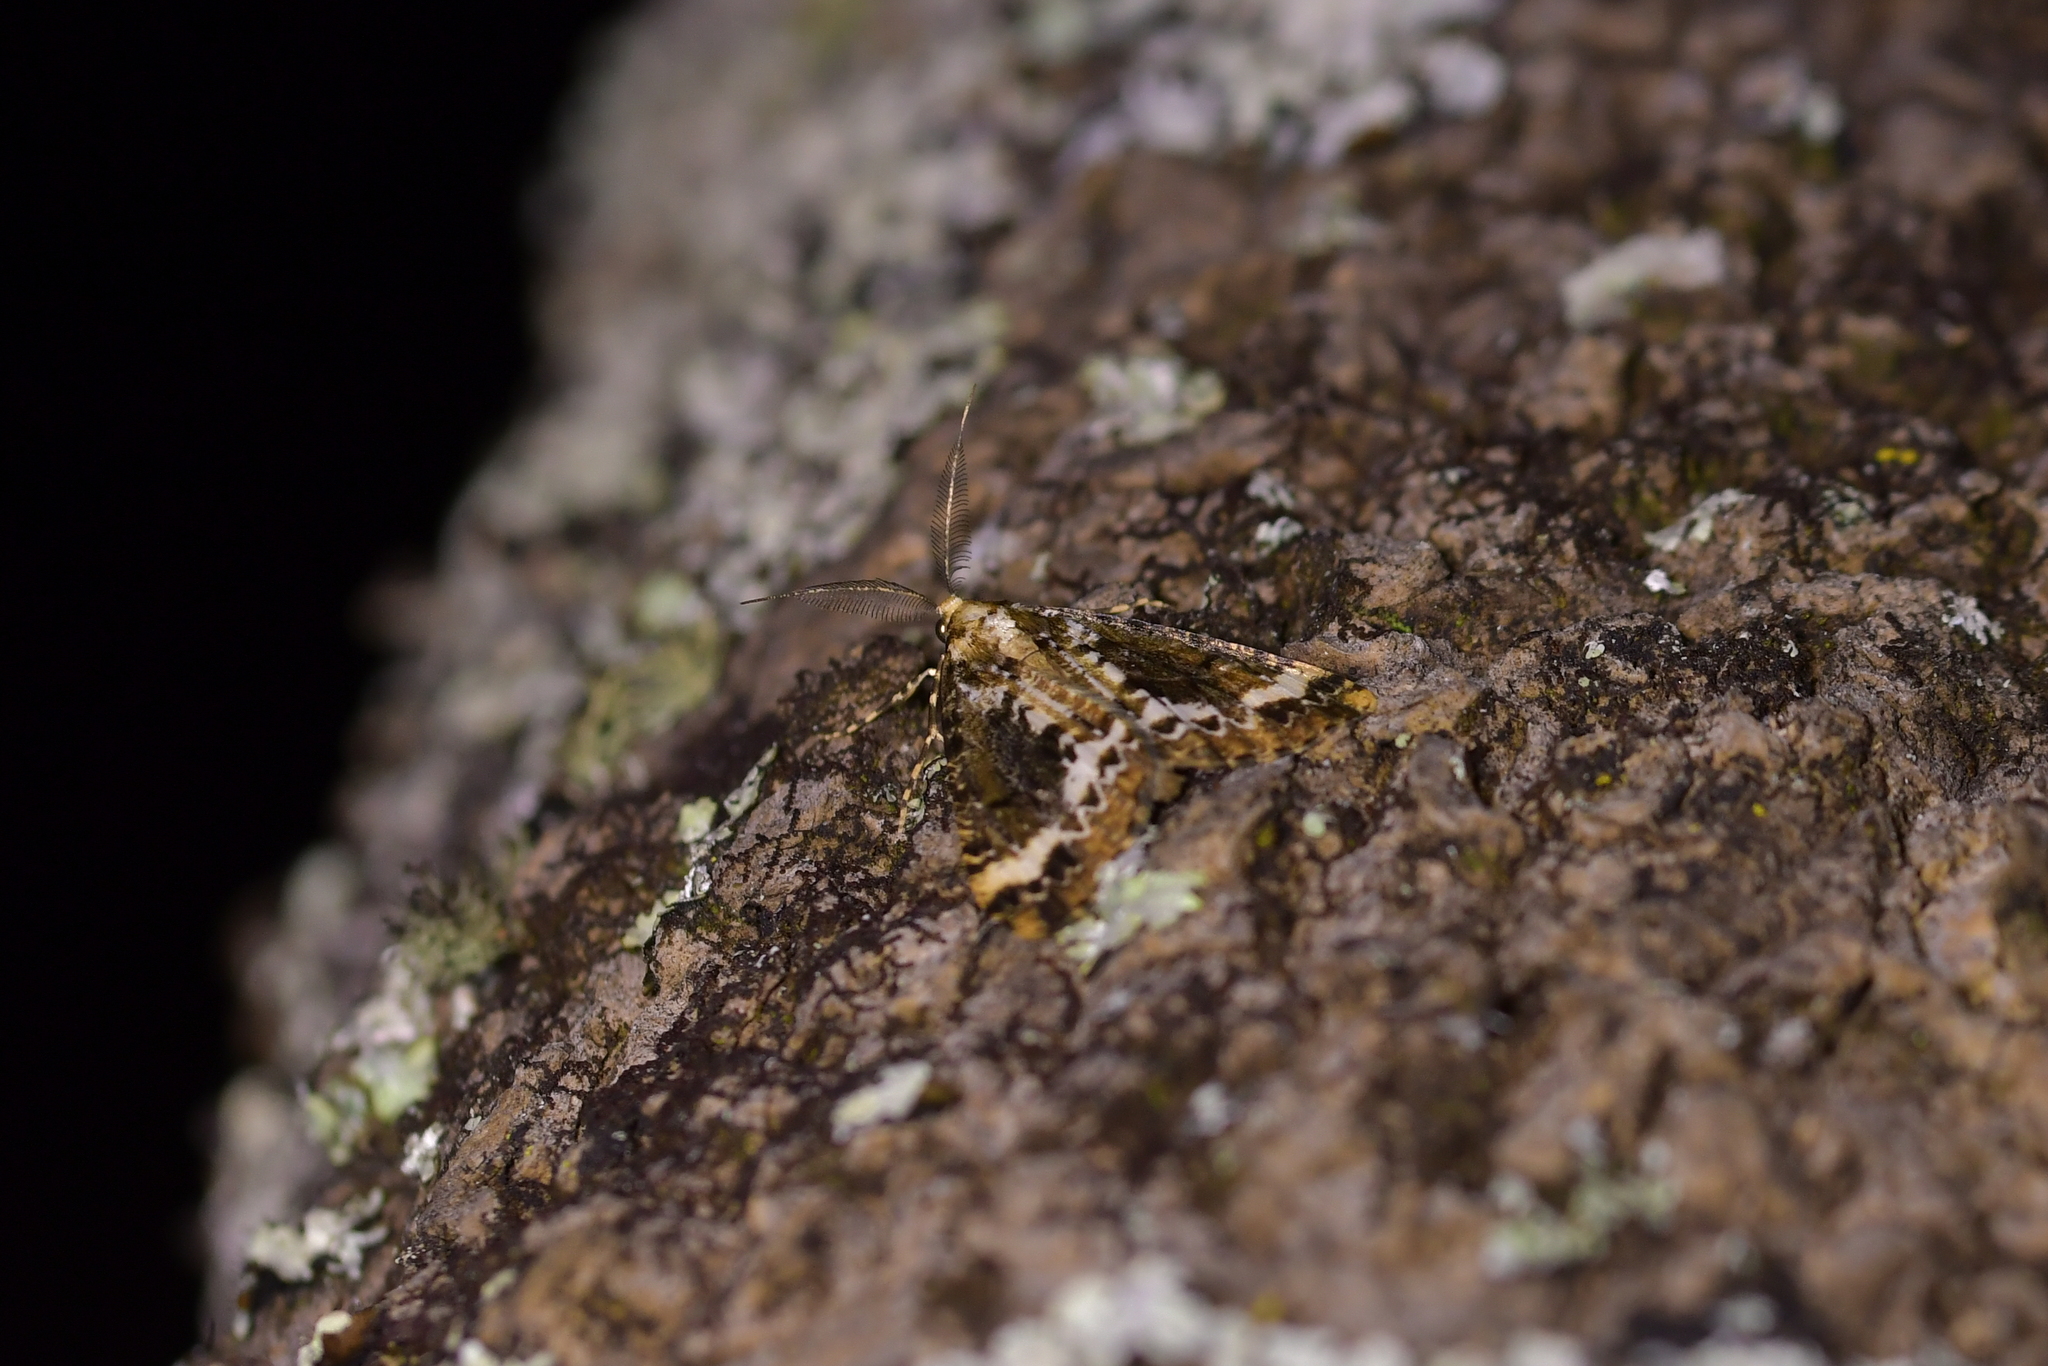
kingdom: Animalia
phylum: Arthropoda
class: Insecta
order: Lepidoptera
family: Geometridae
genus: Pseudocoremia
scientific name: Pseudocoremia leucelaea
